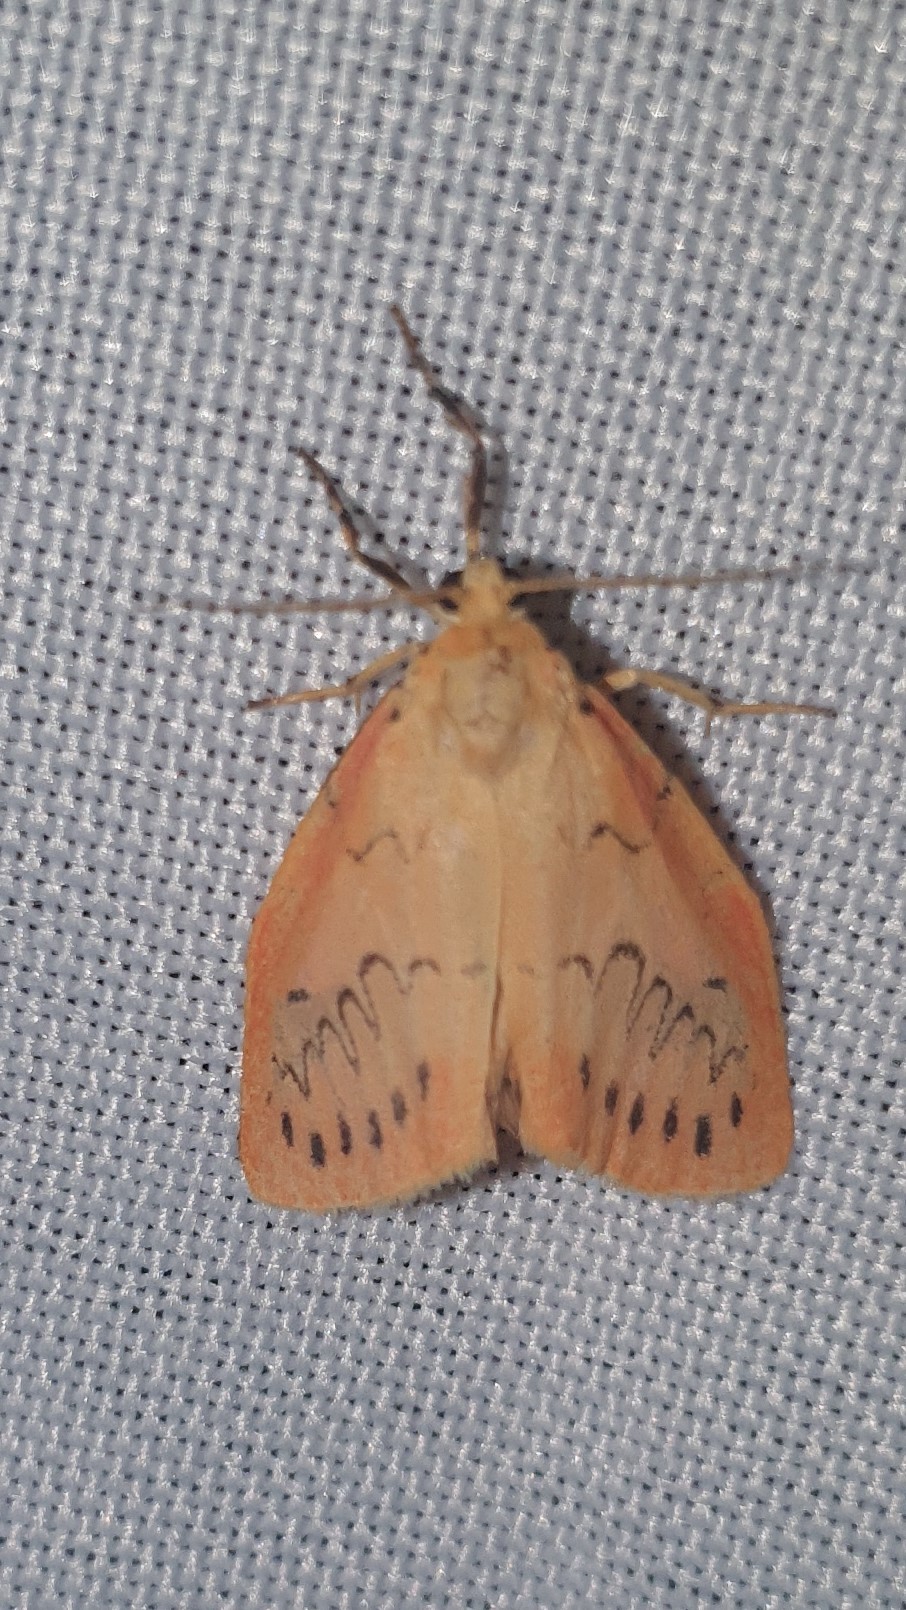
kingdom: Animalia
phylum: Arthropoda
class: Insecta
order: Lepidoptera
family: Erebidae
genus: Miltochrista
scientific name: Miltochrista miniata
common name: Rosy footman
